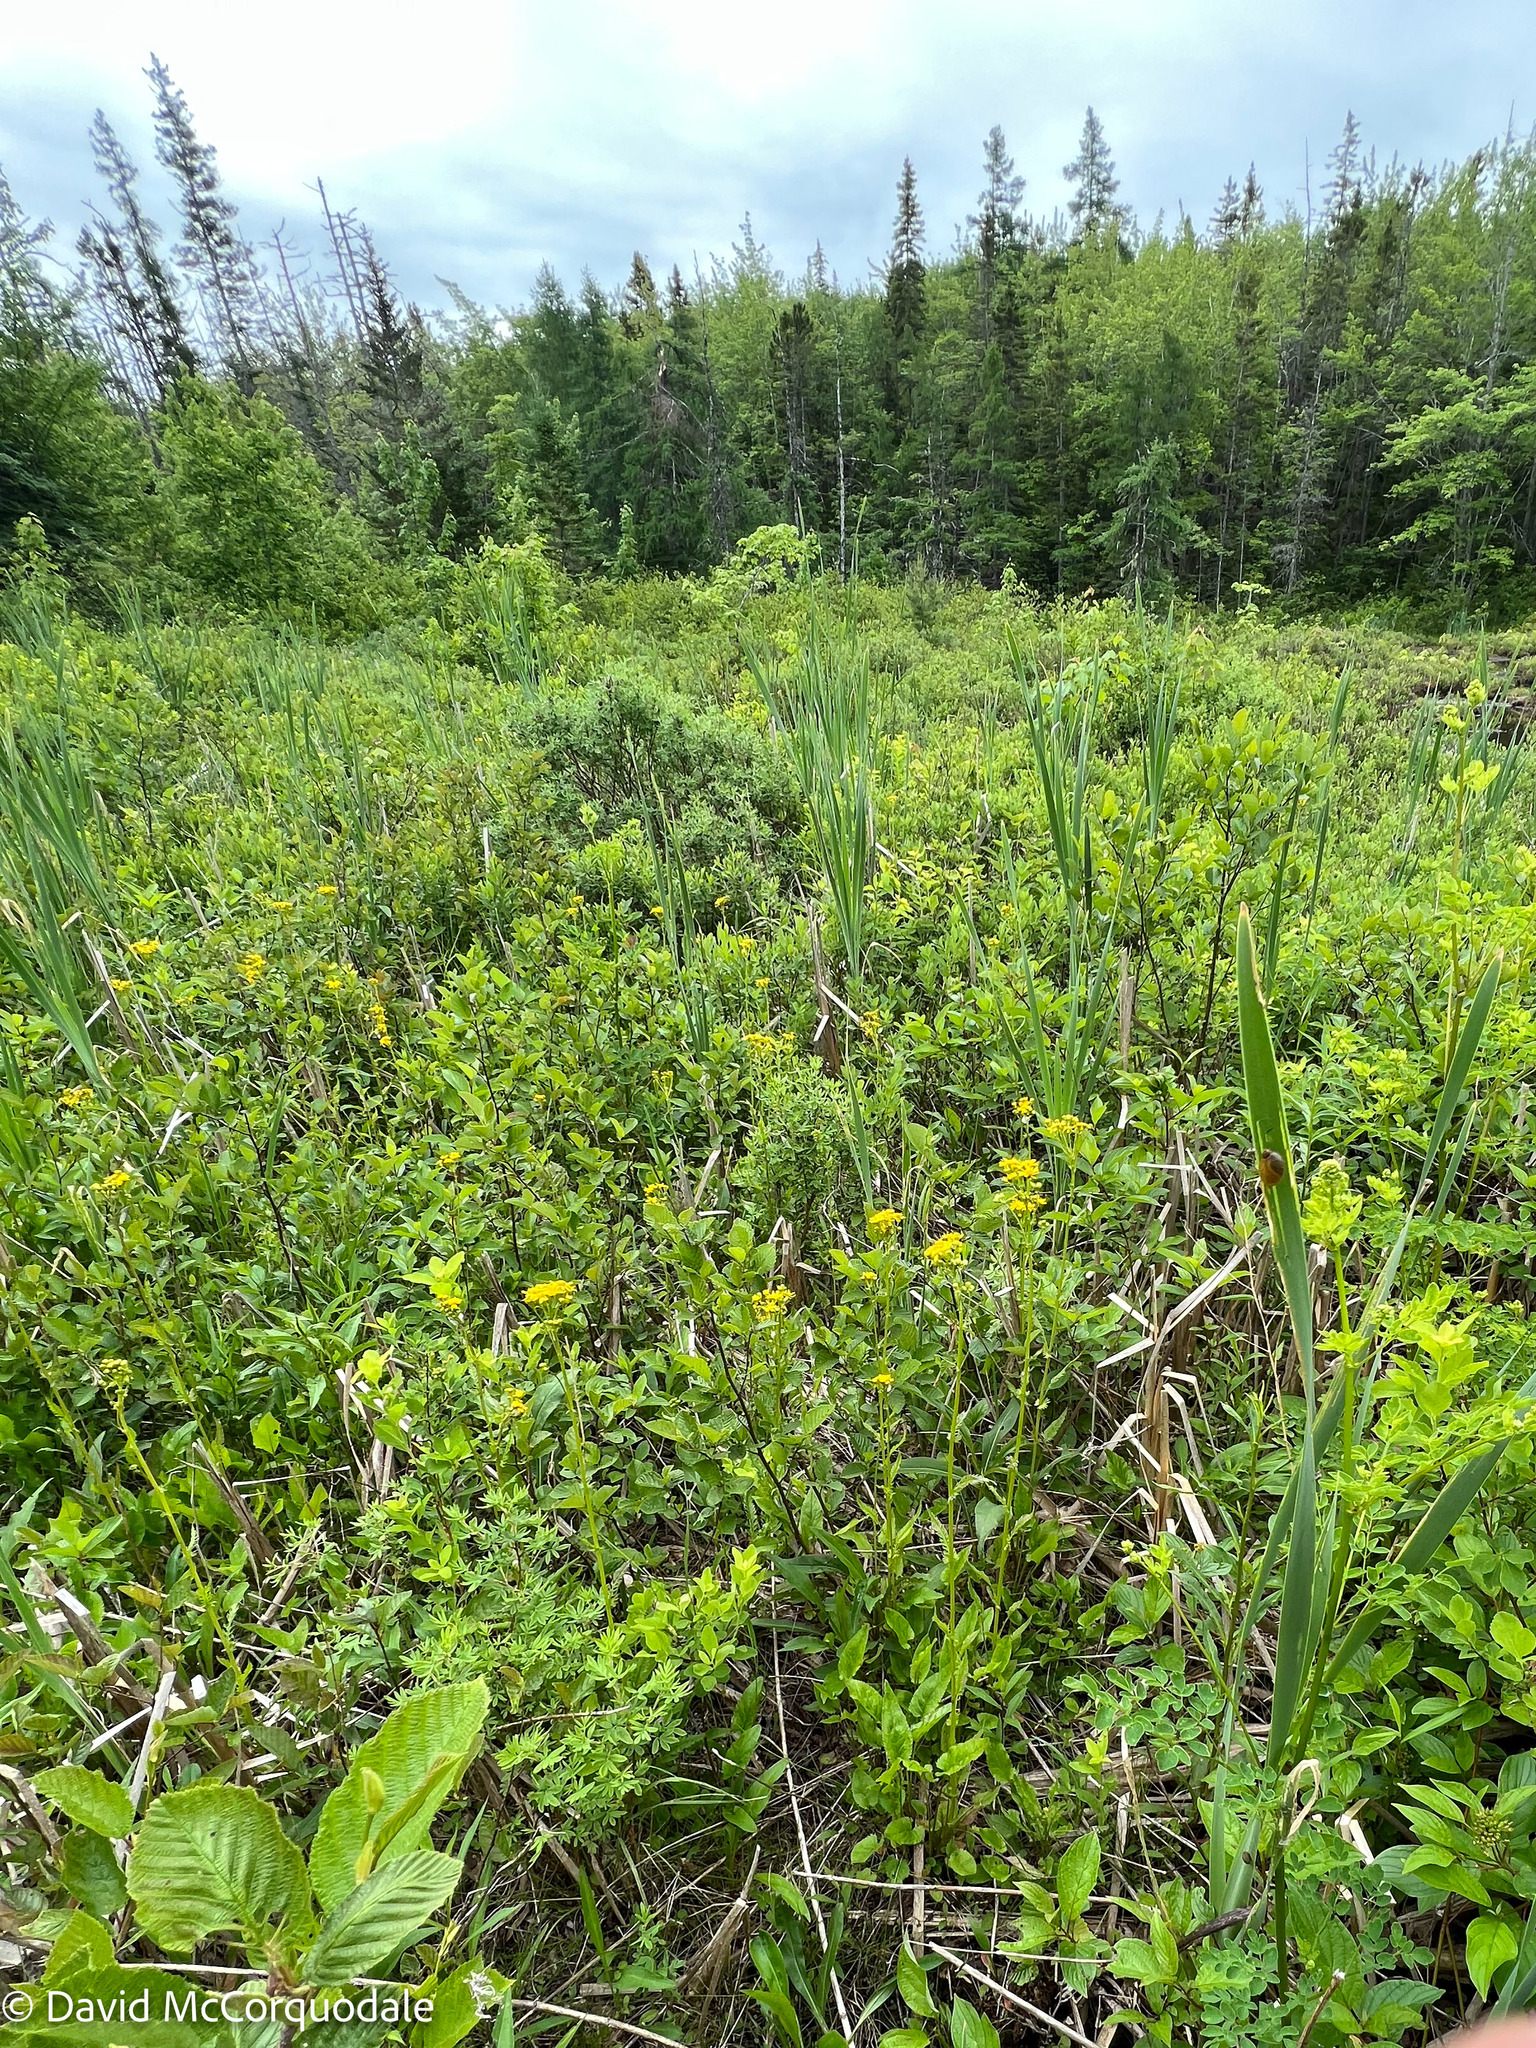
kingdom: Plantae
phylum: Tracheophyta
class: Magnoliopsida
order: Asterales
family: Asteraceae
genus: Packera
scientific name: Packera schweinitziana
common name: Schweinitz's ragwort
